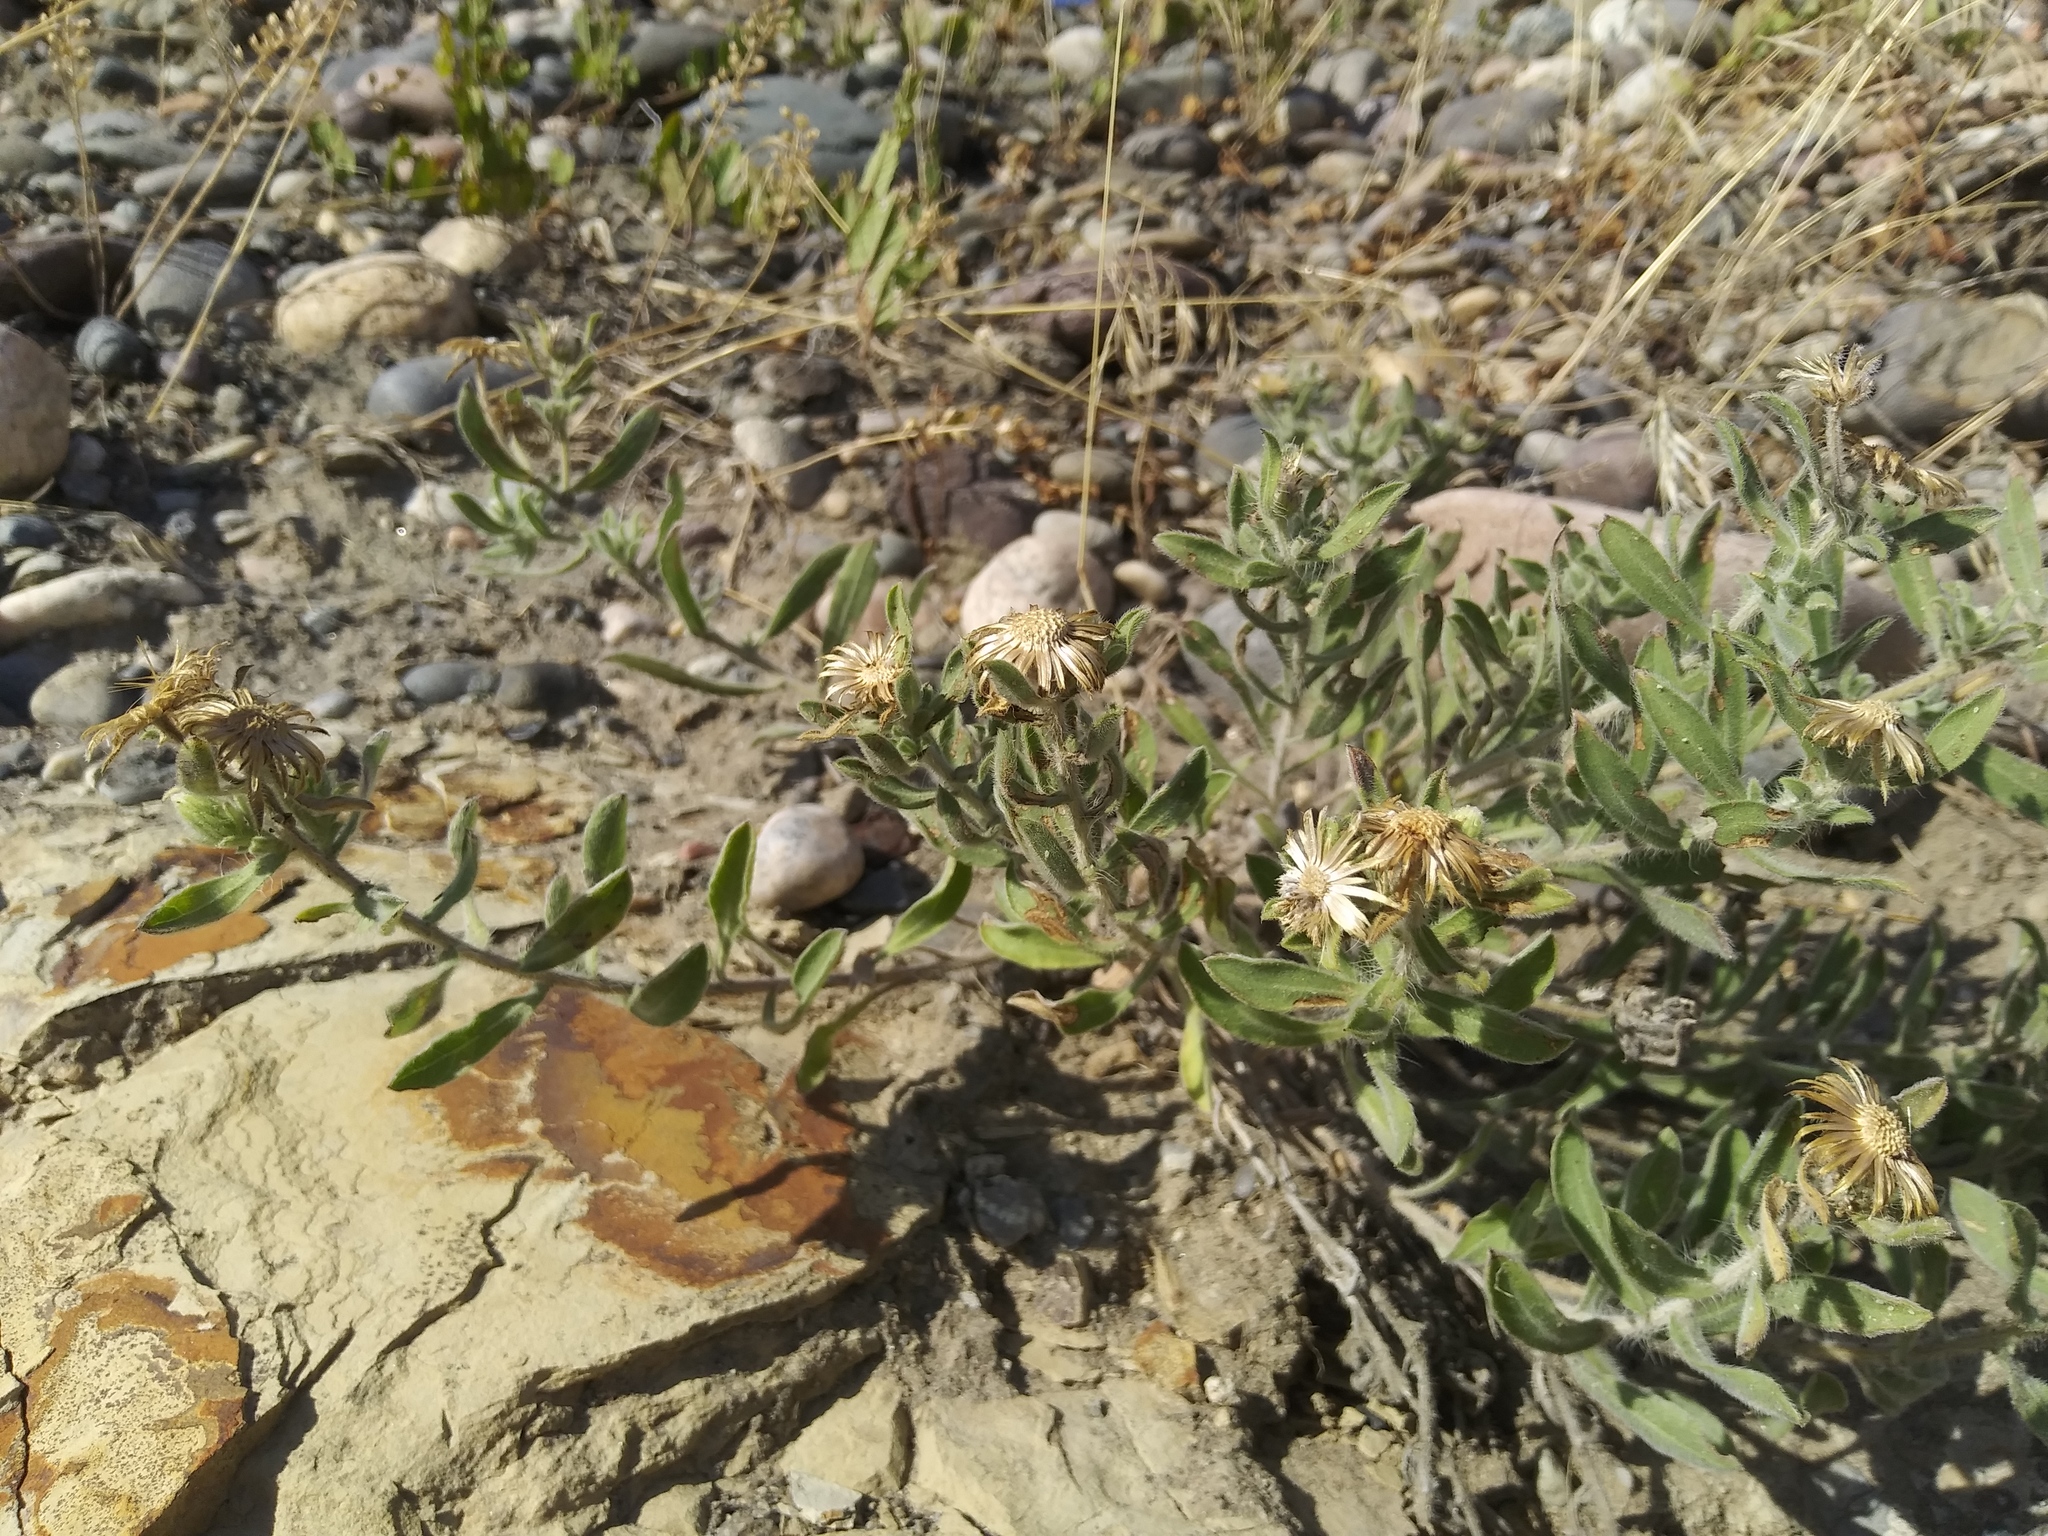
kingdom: Plantae
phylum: Tracheophyta
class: Magnoliopsida
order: Asterales
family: Asteraceae
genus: Heterotheca
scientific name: Heterotheca villosa
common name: Hairy false goldenaster
